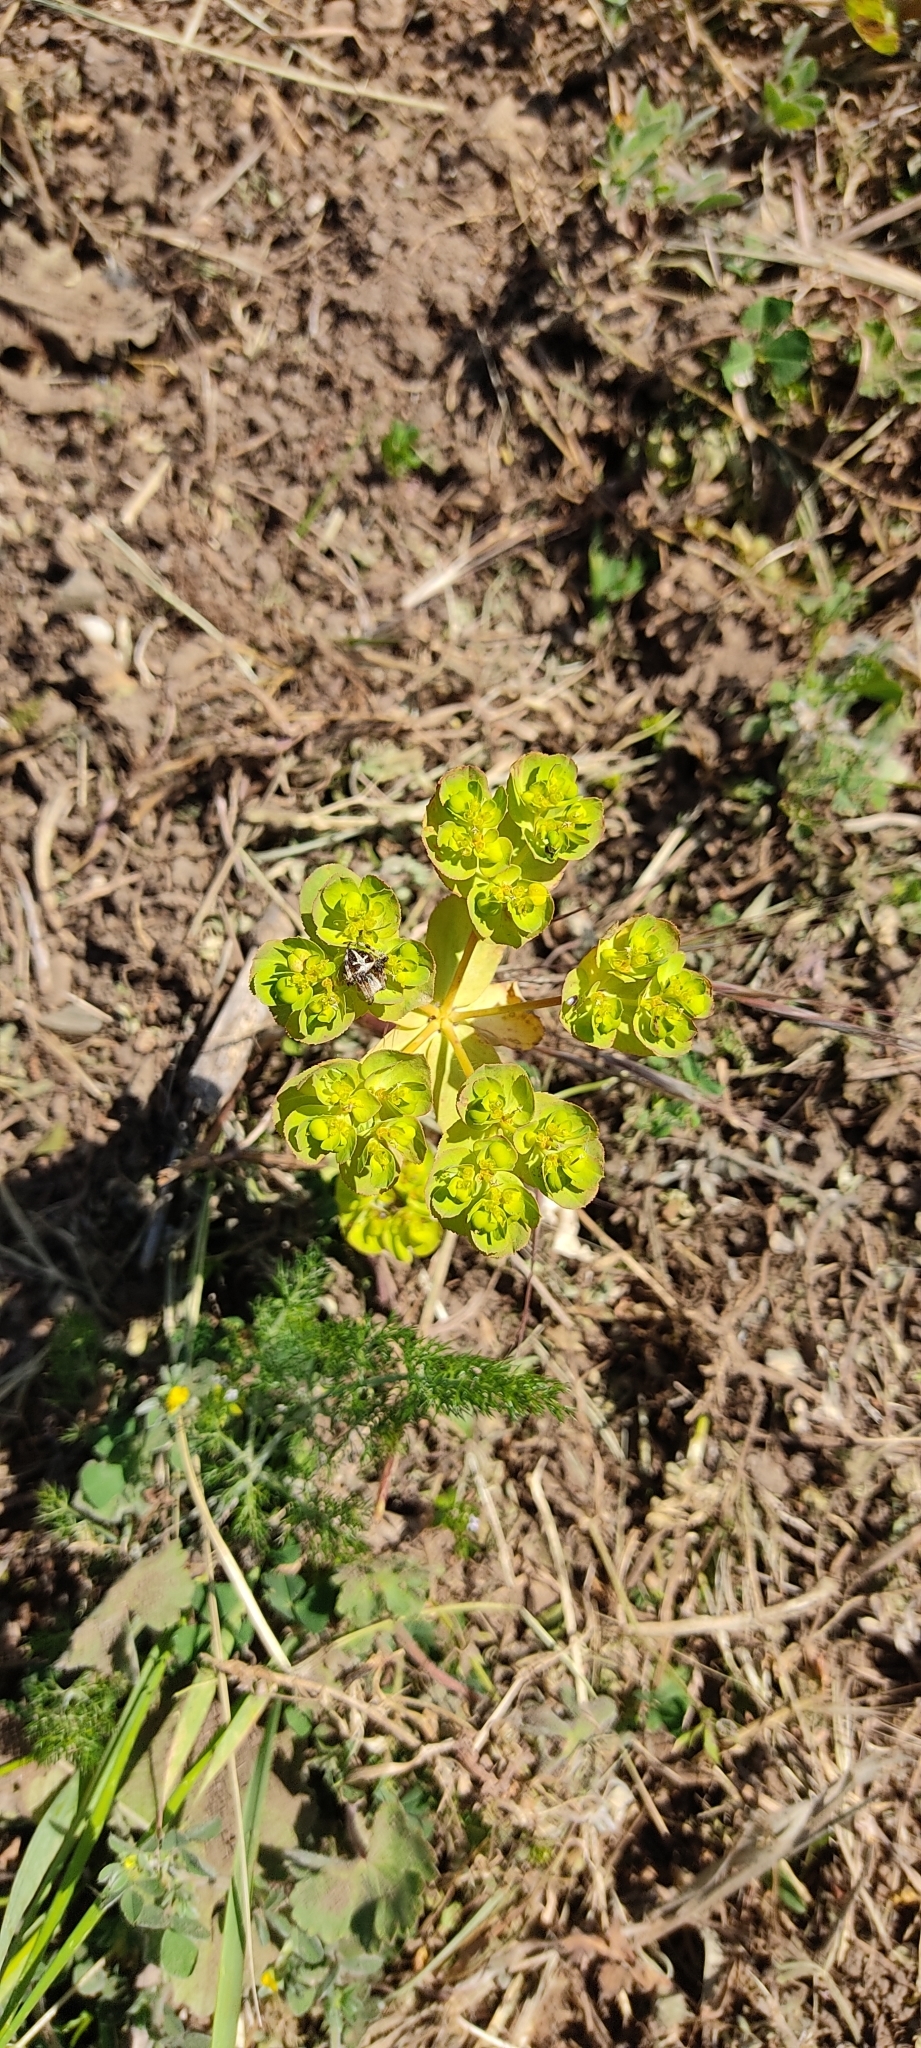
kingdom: Animalia
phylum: Arthropoda
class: Arachnida
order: Araneae
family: Araneidae
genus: Agalenatea
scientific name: Agalenatea redii
